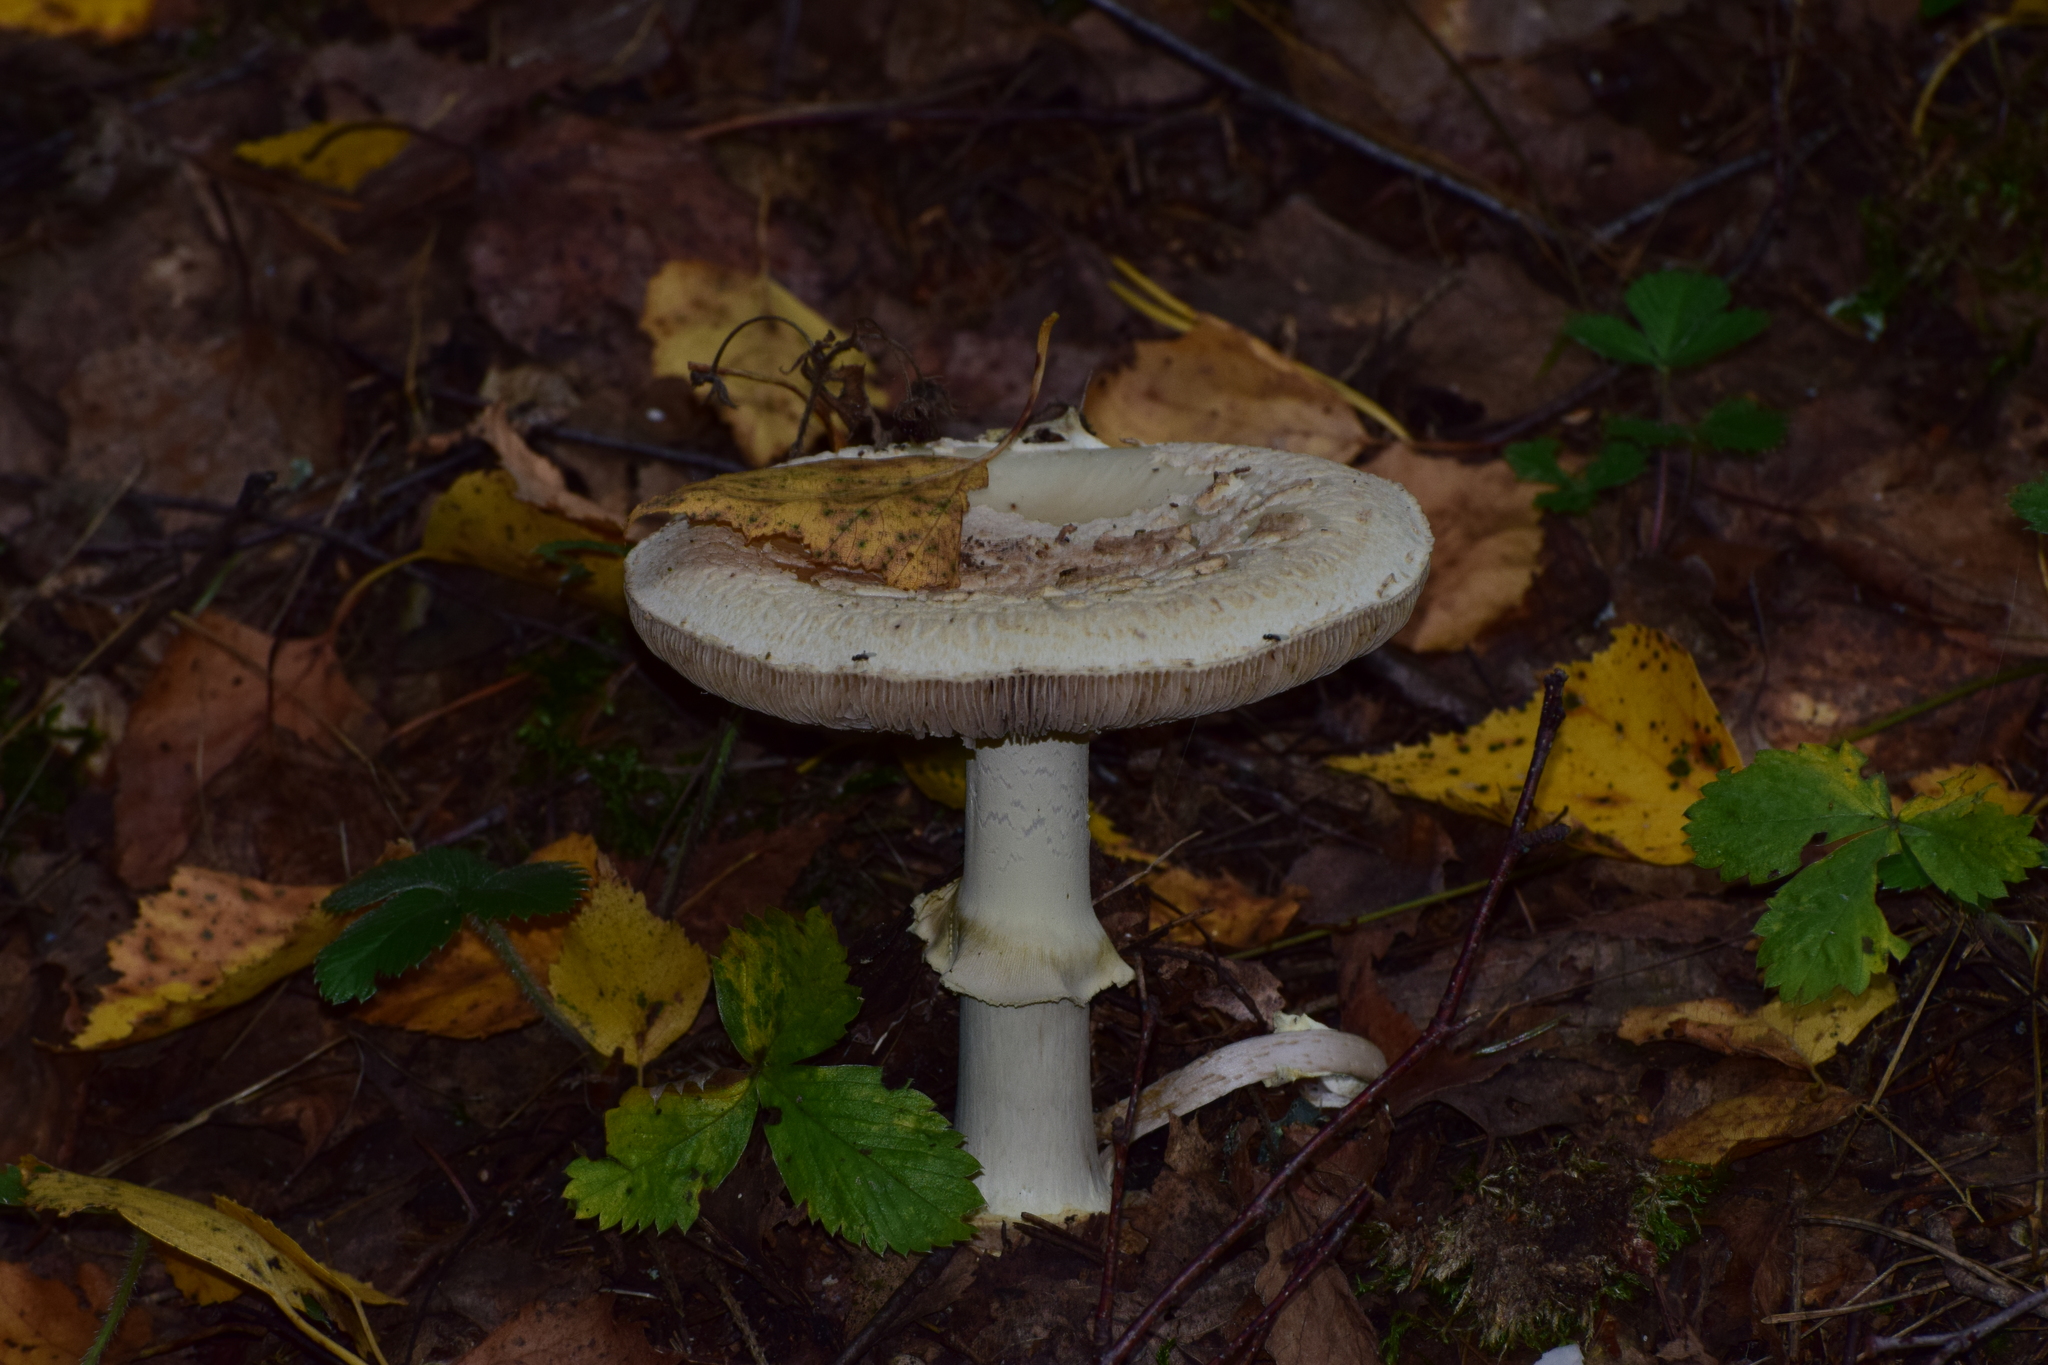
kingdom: Fungi
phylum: Basidiomycota
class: Agaricomycetes
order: Agaricales
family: Amanitaceae
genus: Amanita
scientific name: Amanita citrina
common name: False death-cap
